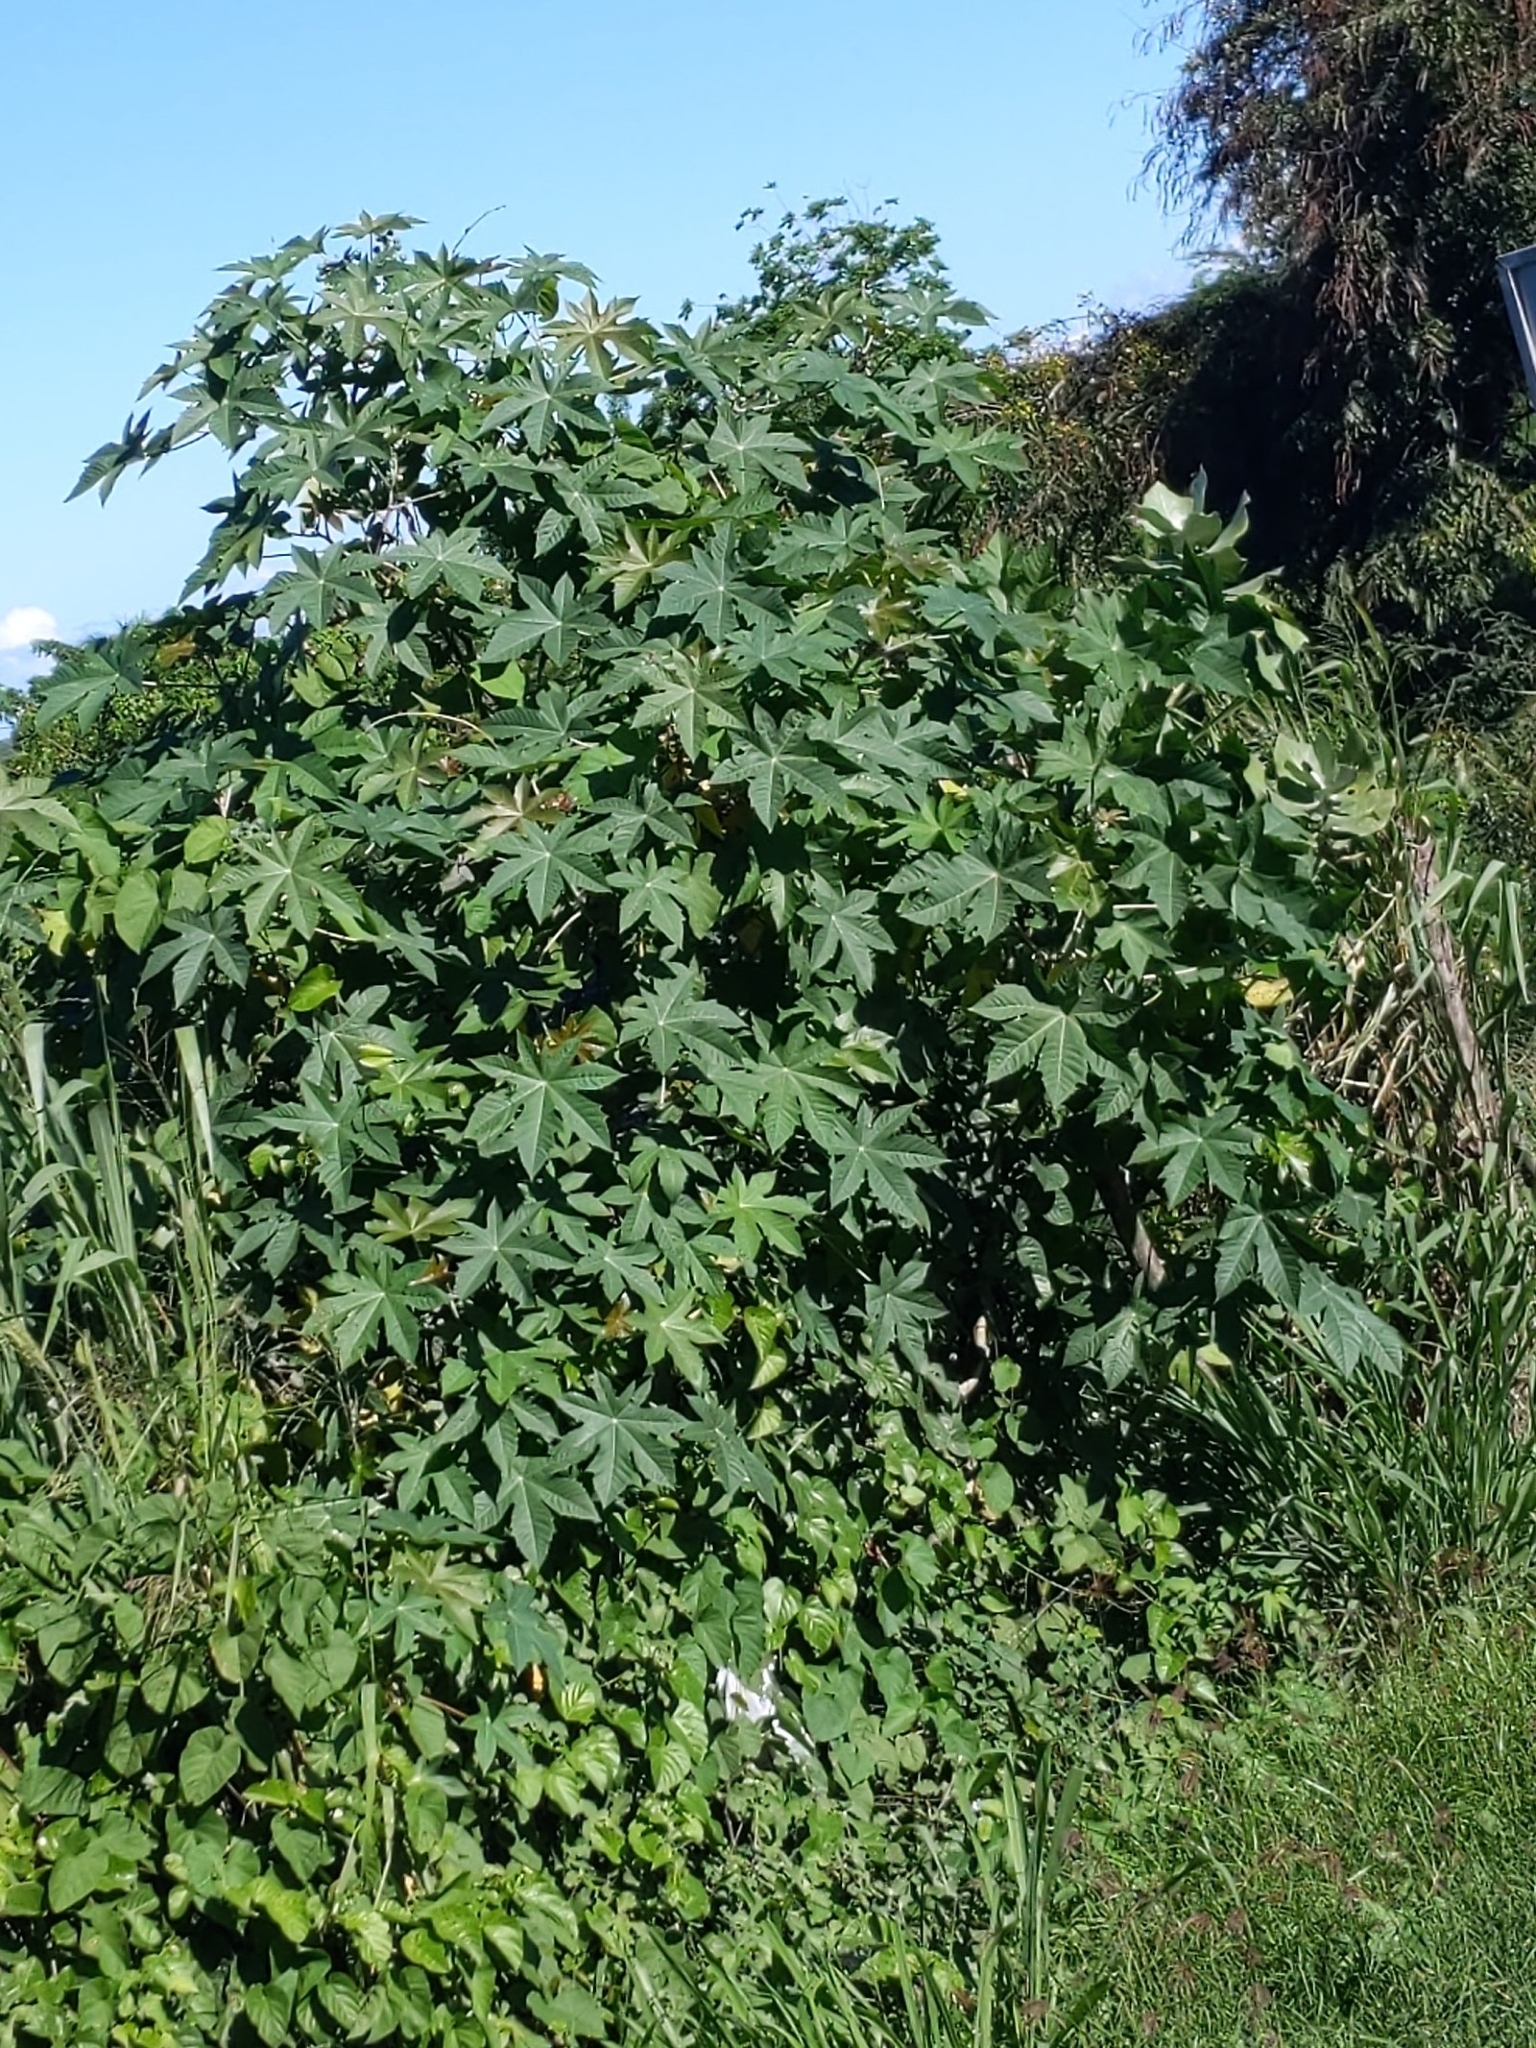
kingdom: Plantae
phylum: Tracheophyta
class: Magnoliopsida
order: Malpighiales
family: Euphorbiaceae
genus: Ricinus
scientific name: Ricinus communis
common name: Castor-oil-plant
